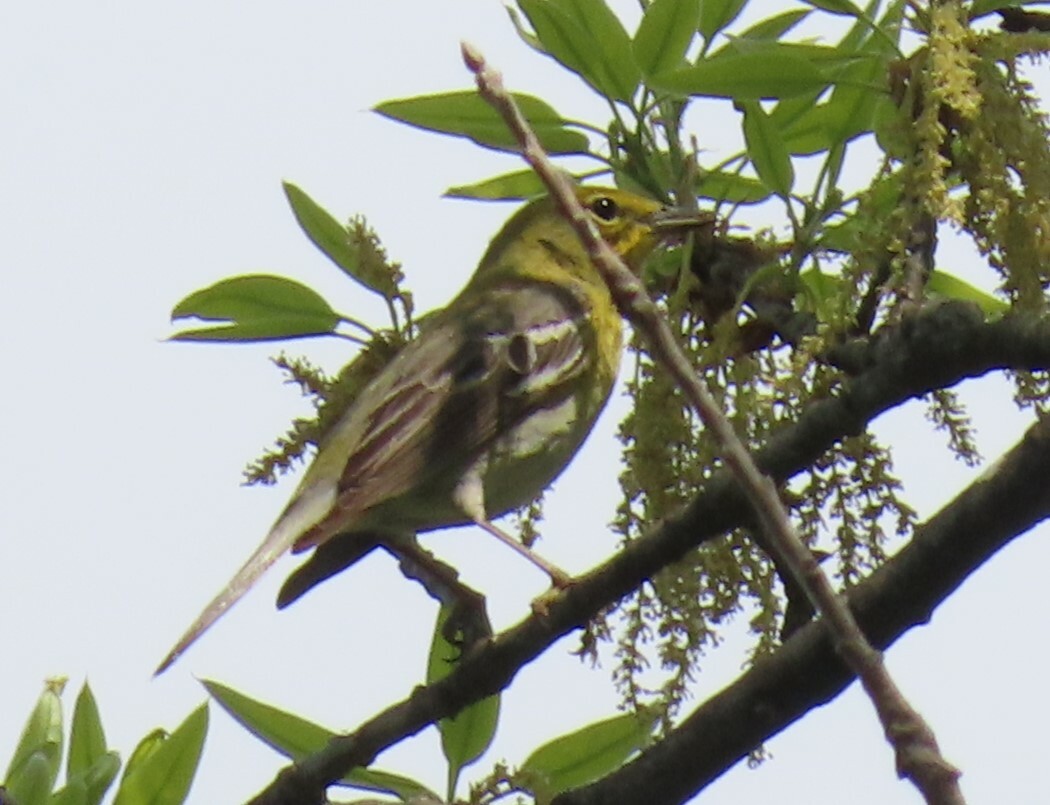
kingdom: Animalia
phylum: Chordata
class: Aves
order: Passeriformes
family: Parulidae
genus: Setophaga
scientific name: Setophaga pinus
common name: Pine warbler
